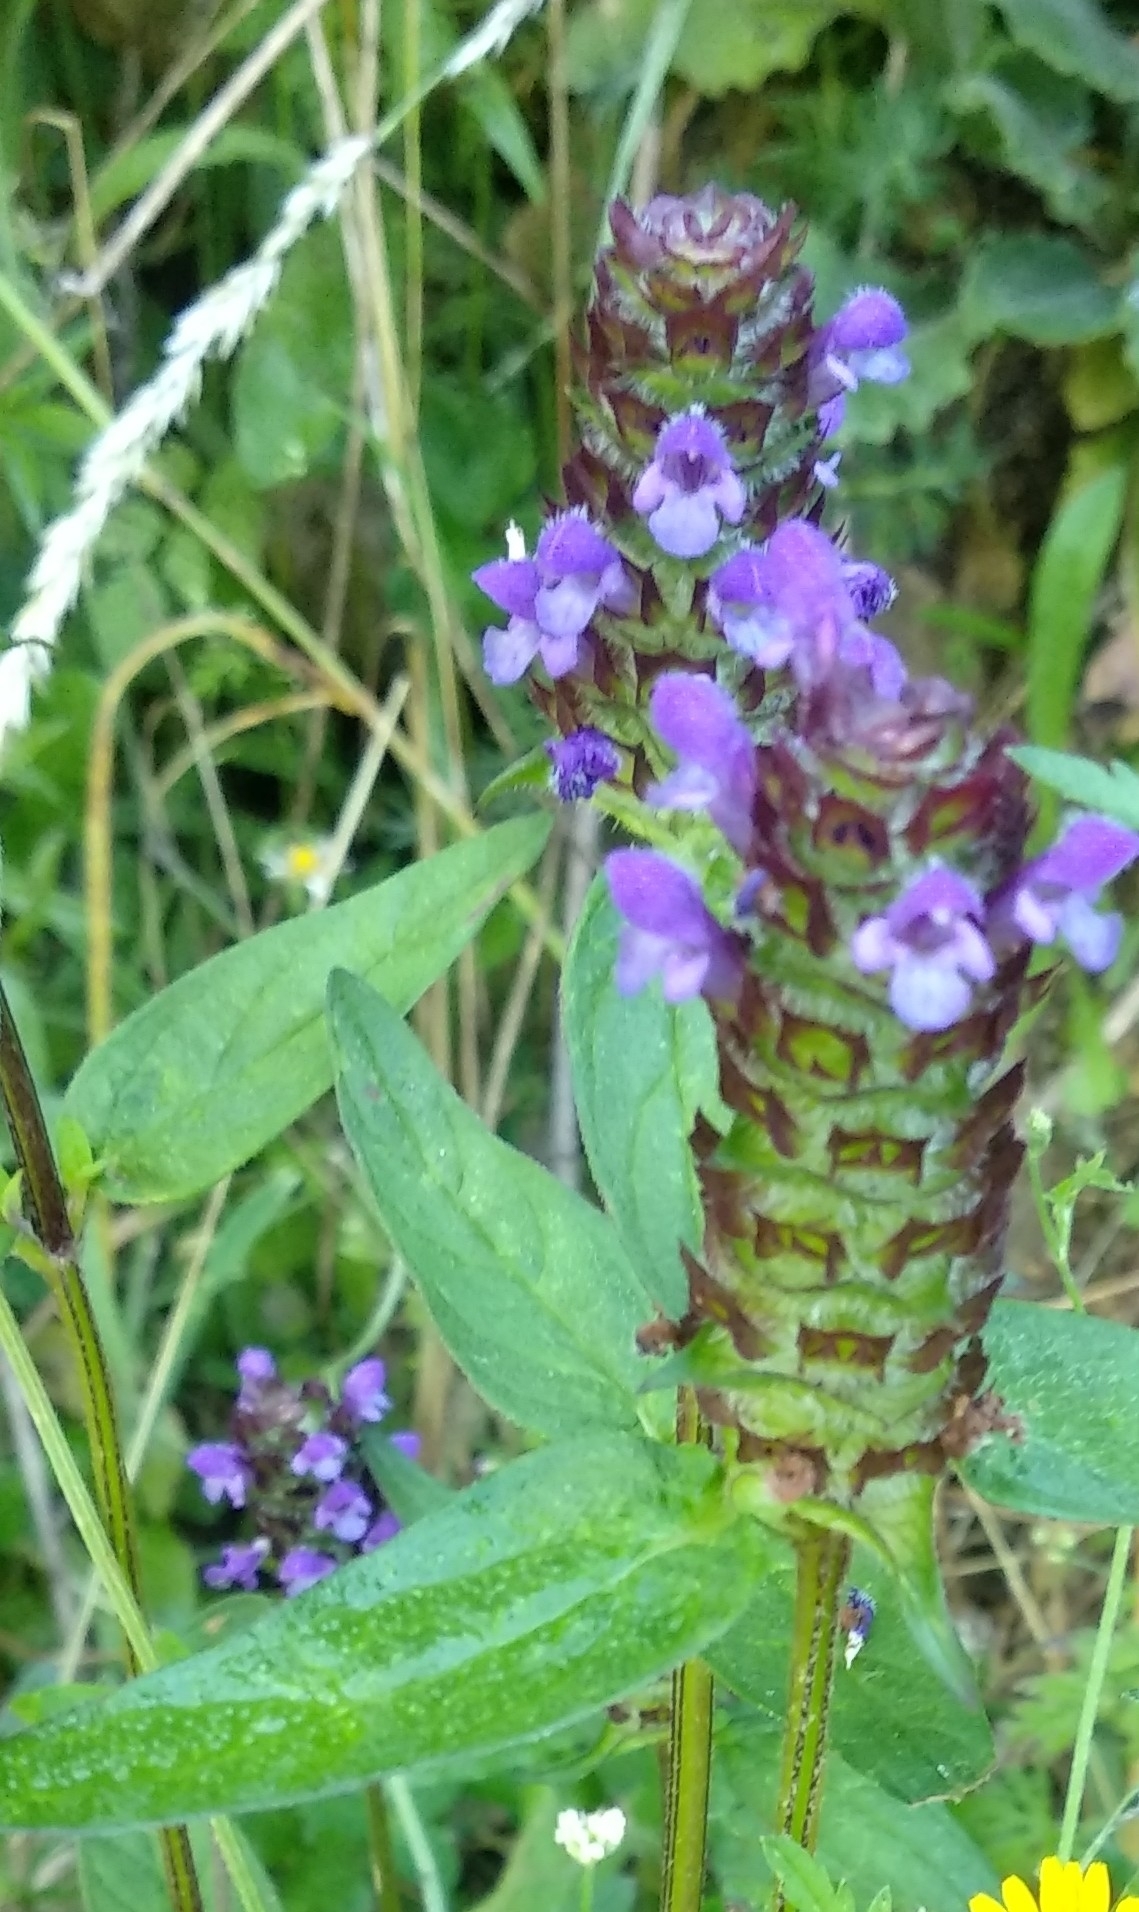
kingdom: Plantae
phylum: Tracheophyta
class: Magnoliopsida
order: Lamiales
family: Lamiaceae
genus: Prunella
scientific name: Prunella vulgaris
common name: Heal-all
